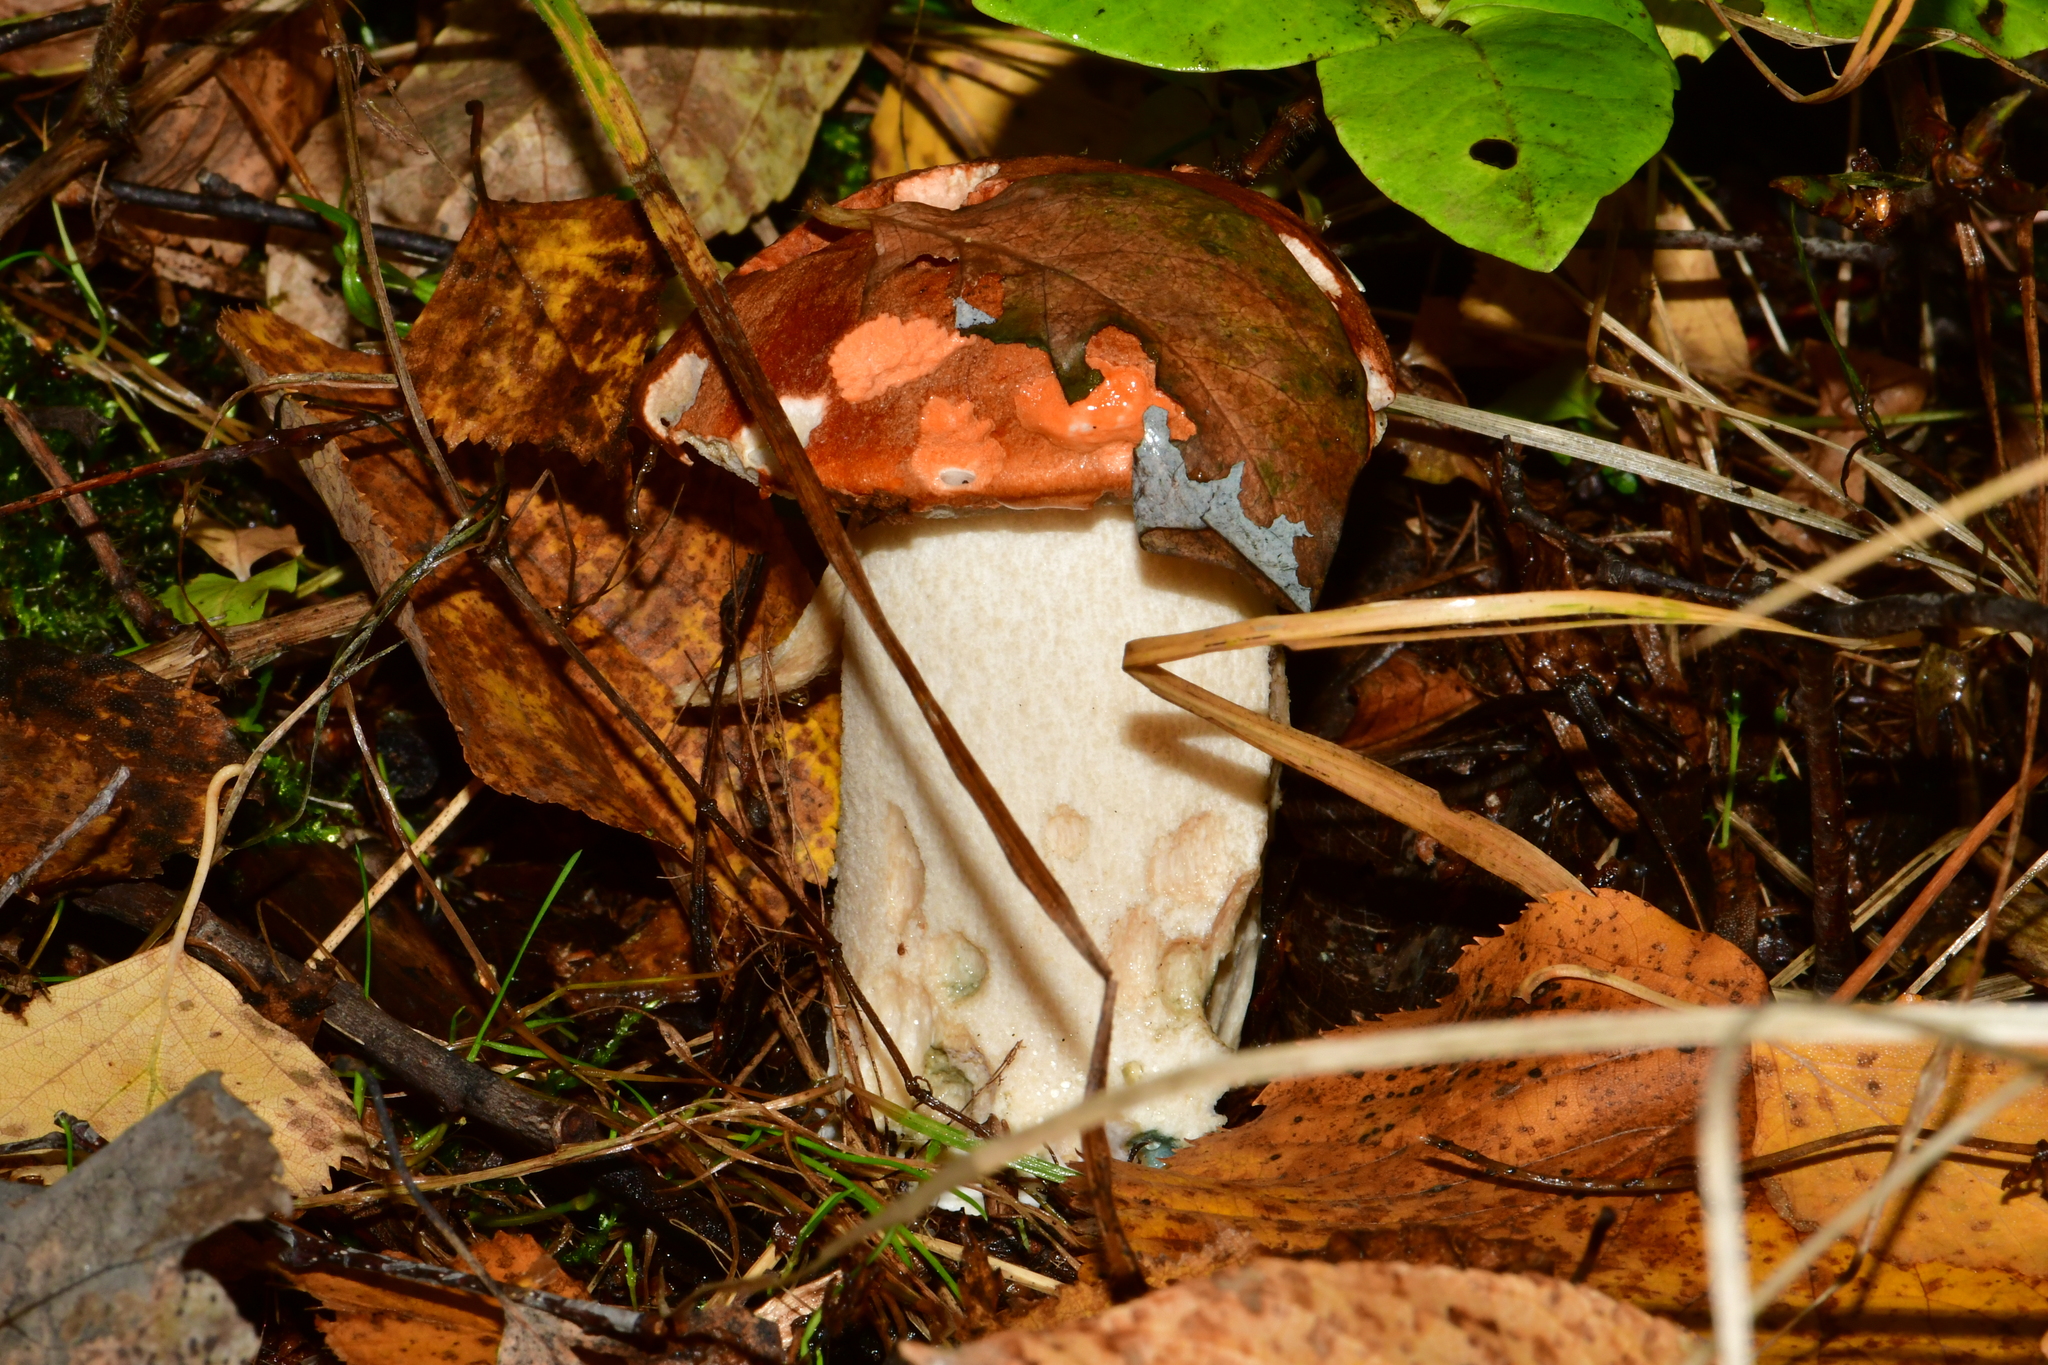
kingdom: Fungi
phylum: Basidiomycota
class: Agaricomycetes
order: Boletales
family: Boletaceae
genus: Leccinum
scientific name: Leccinum albostipitatum
